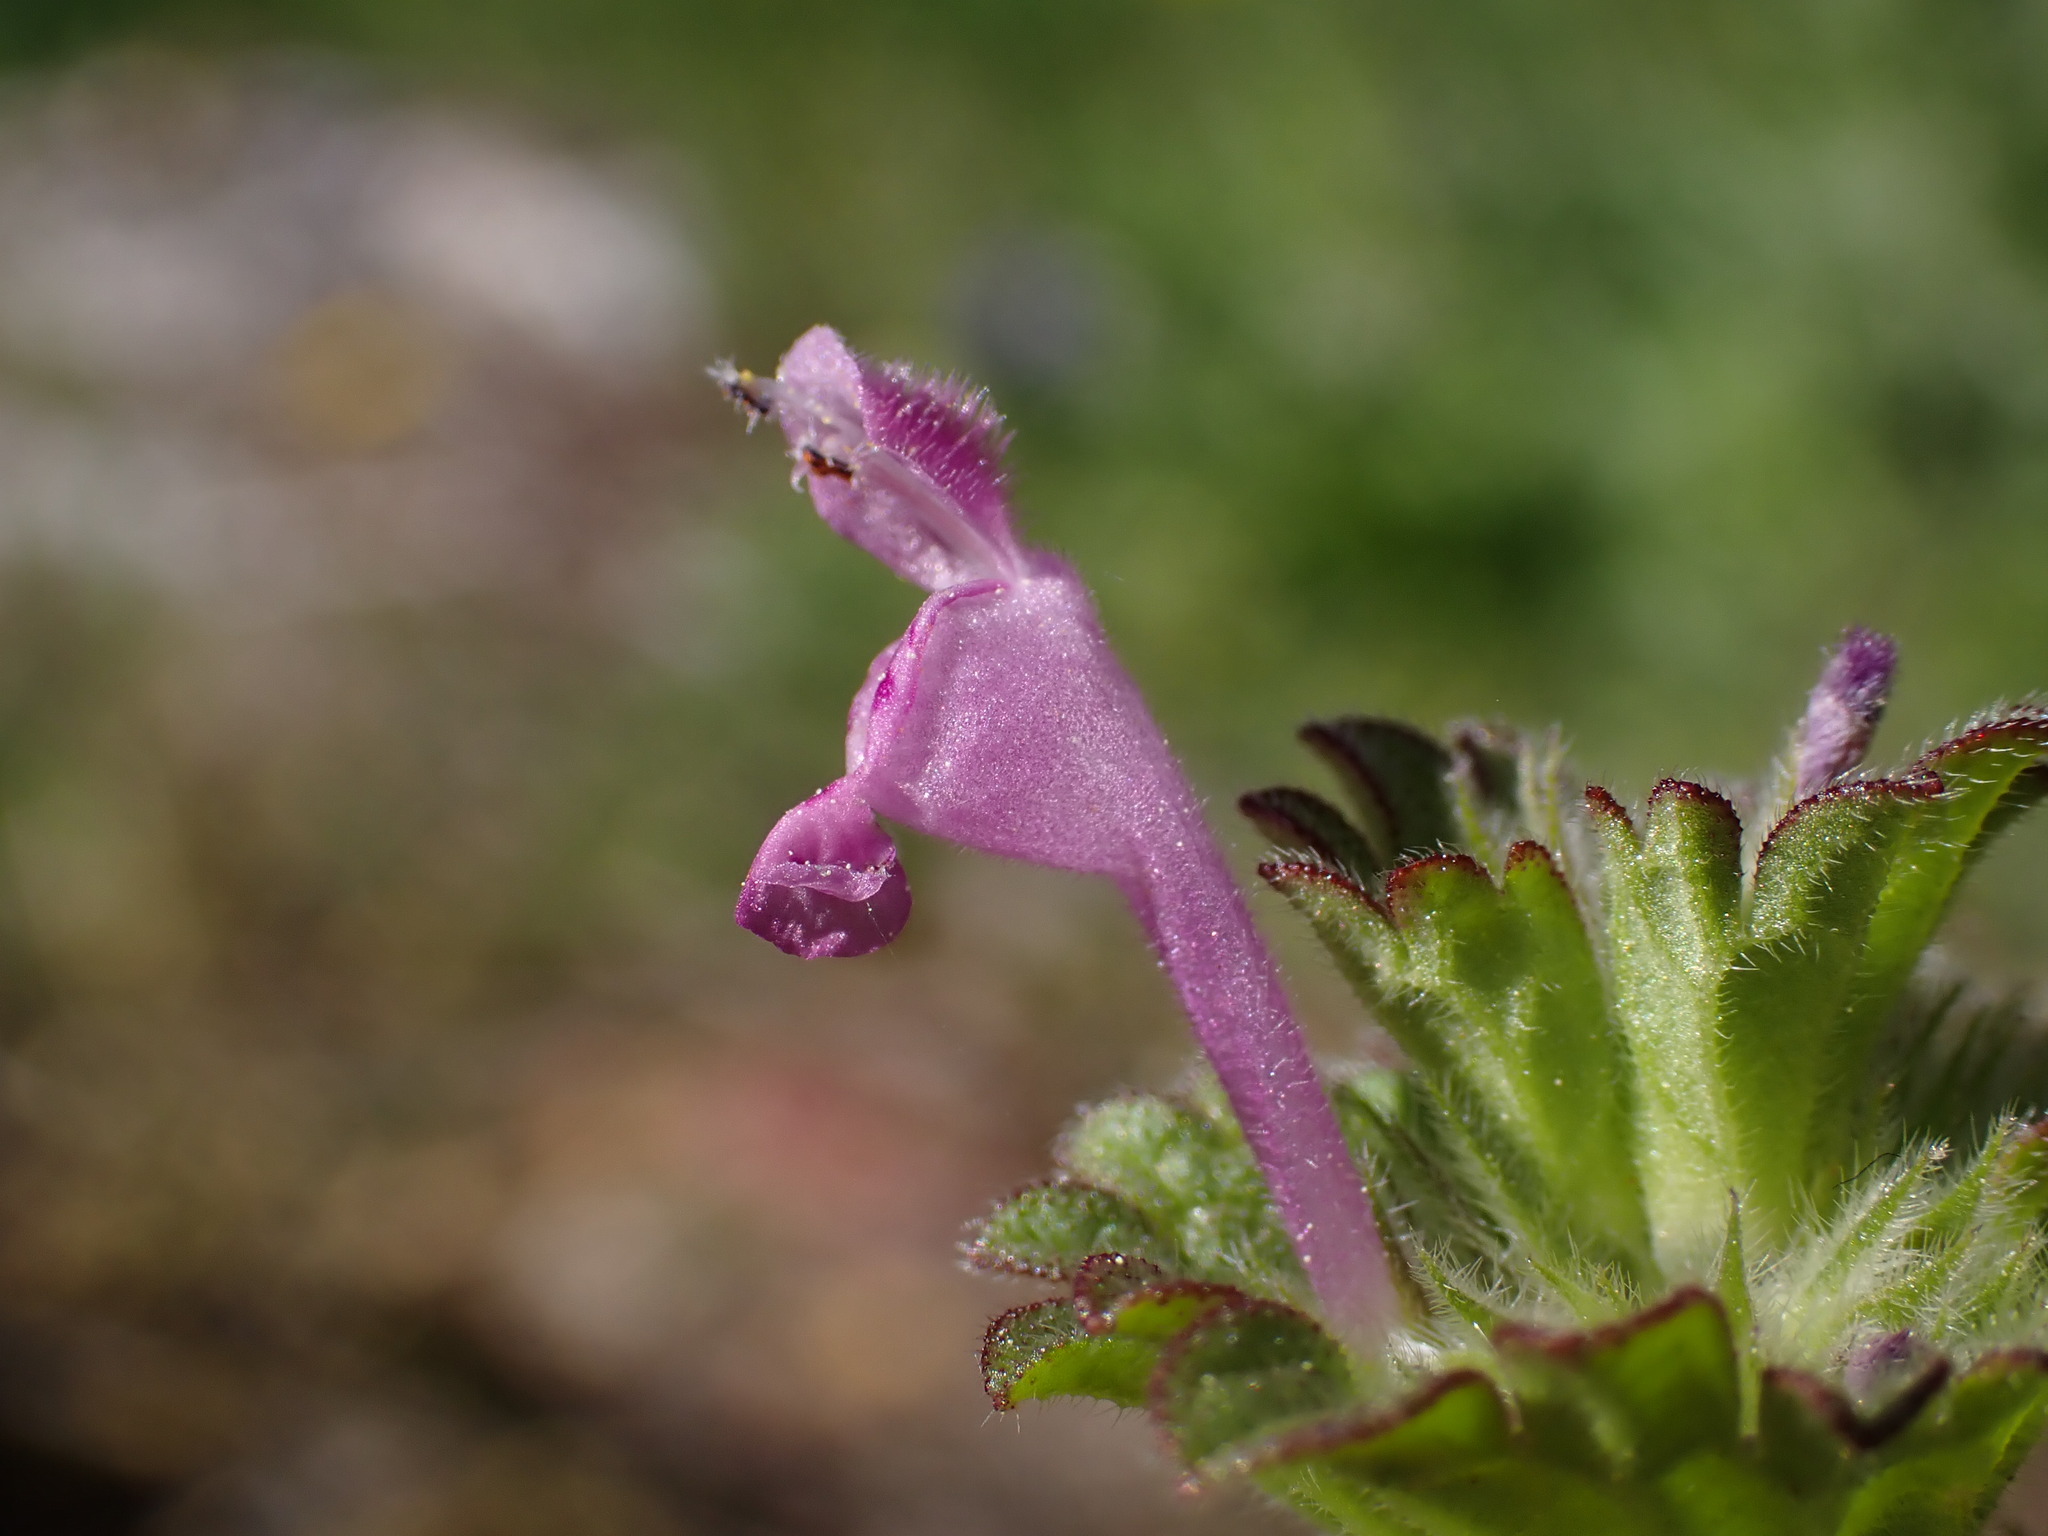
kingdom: Plantae
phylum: Tracheophyta
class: Magnoliopsida
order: Lamiales
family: Lamiaceae
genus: Lamium
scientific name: Lamium amplexicaule
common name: Henbit dead-nettle
